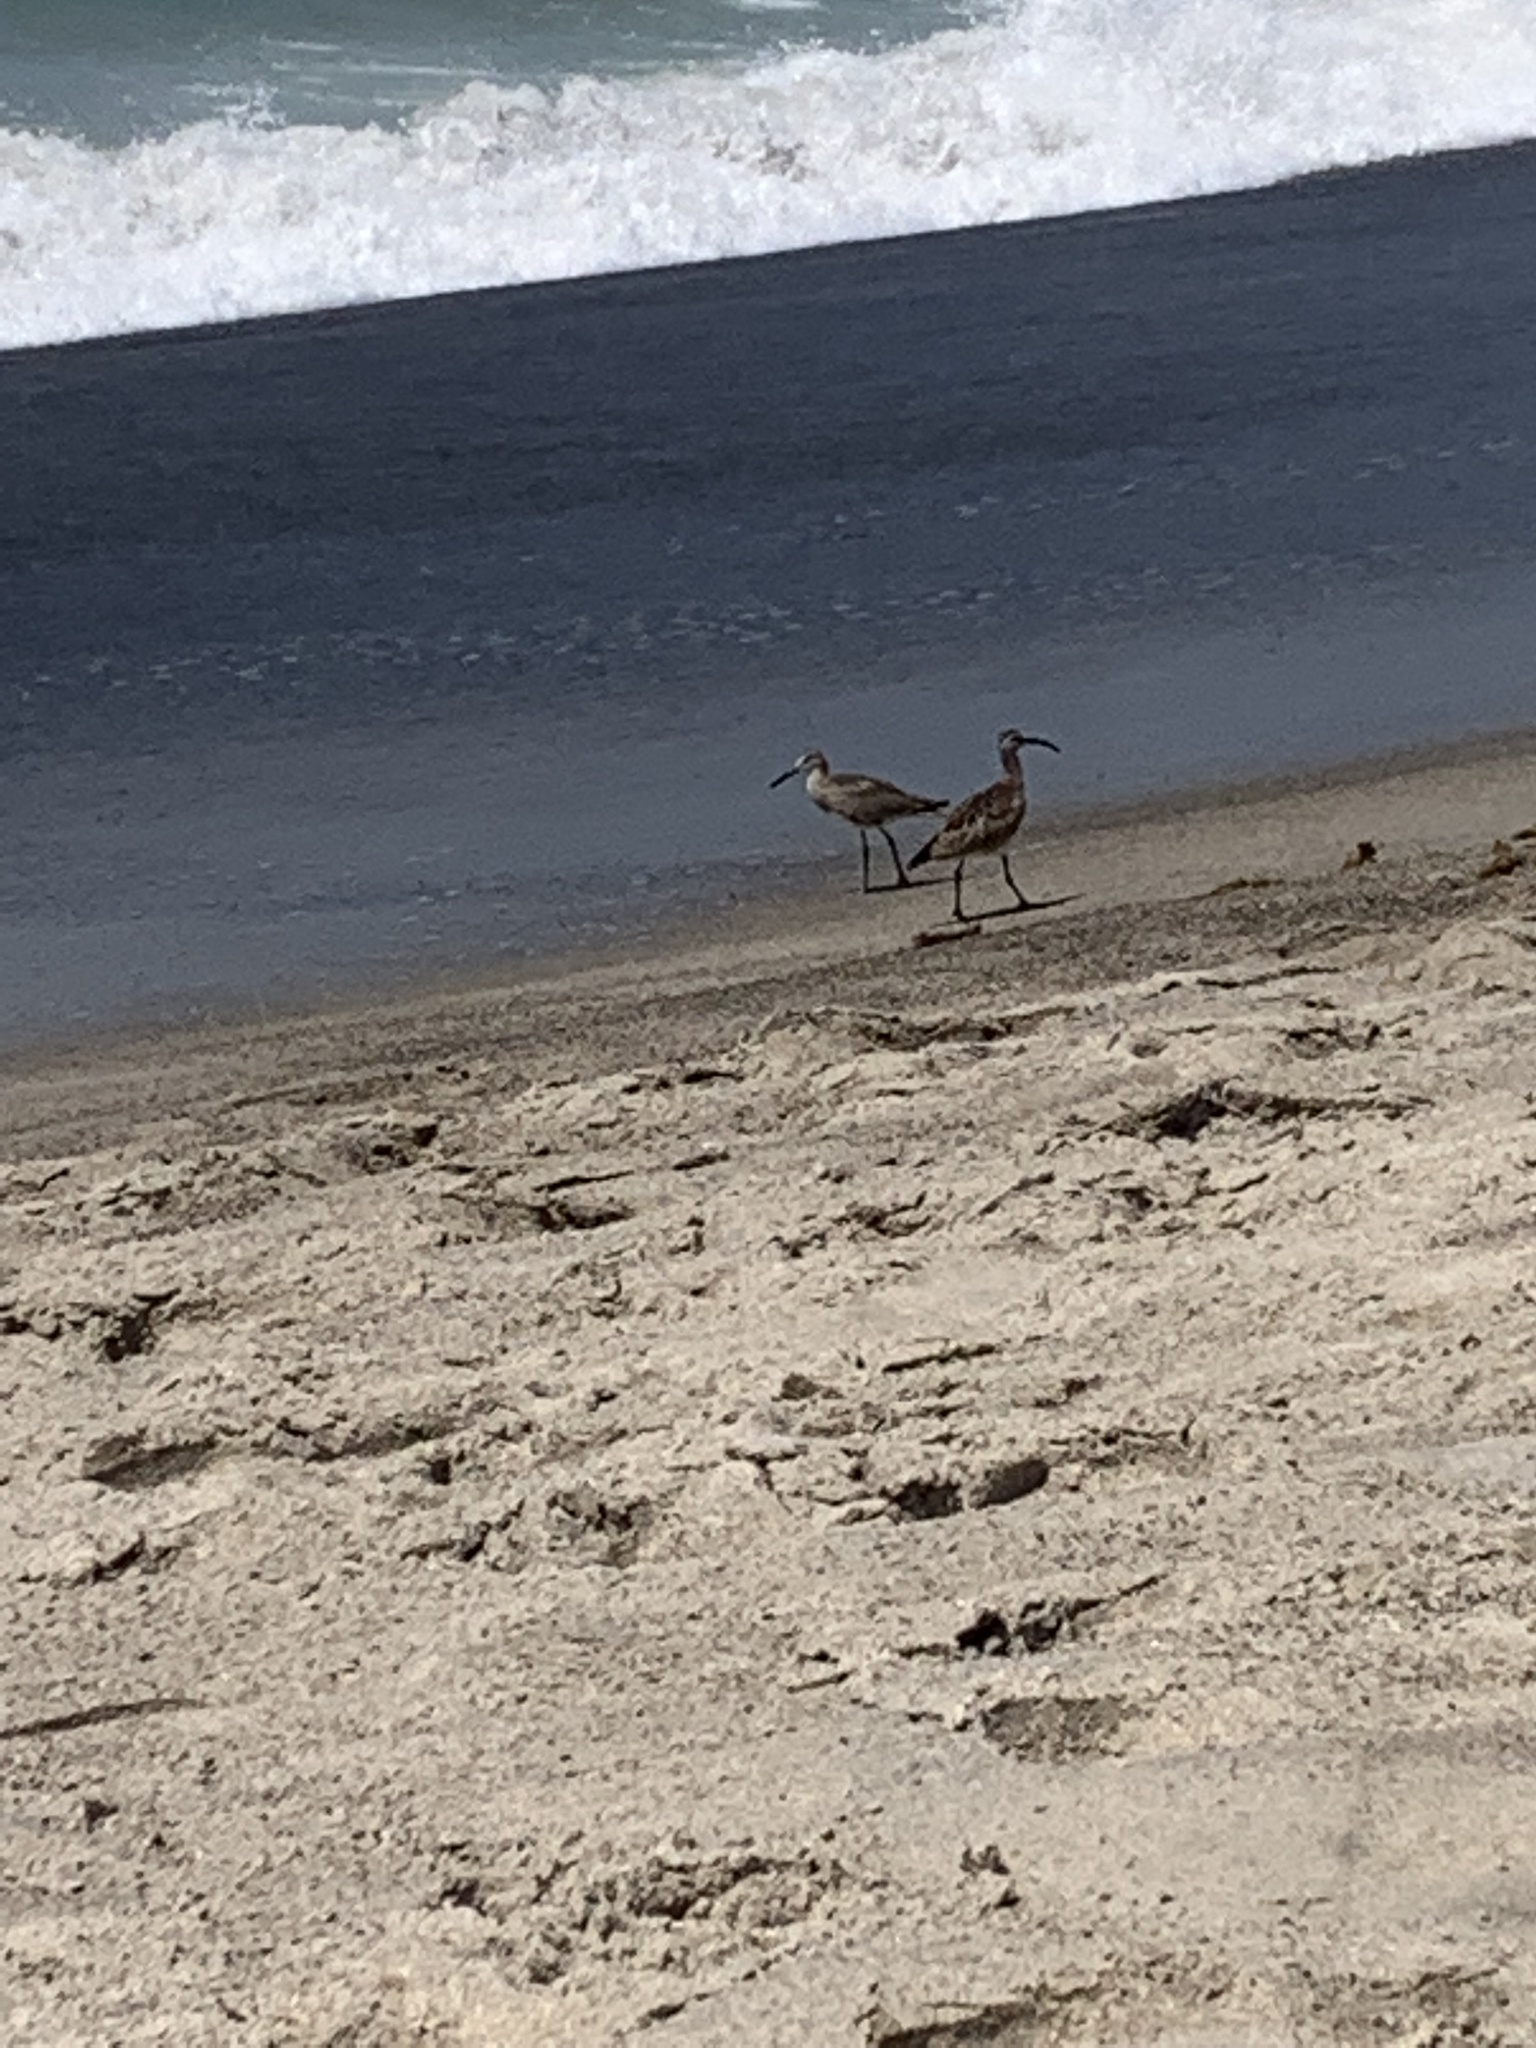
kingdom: Animalia
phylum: Chordata
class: Aves
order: Charadriiformes
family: Scolopacidae
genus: Numenius
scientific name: Numenius phaeopus
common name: Whimbrel
